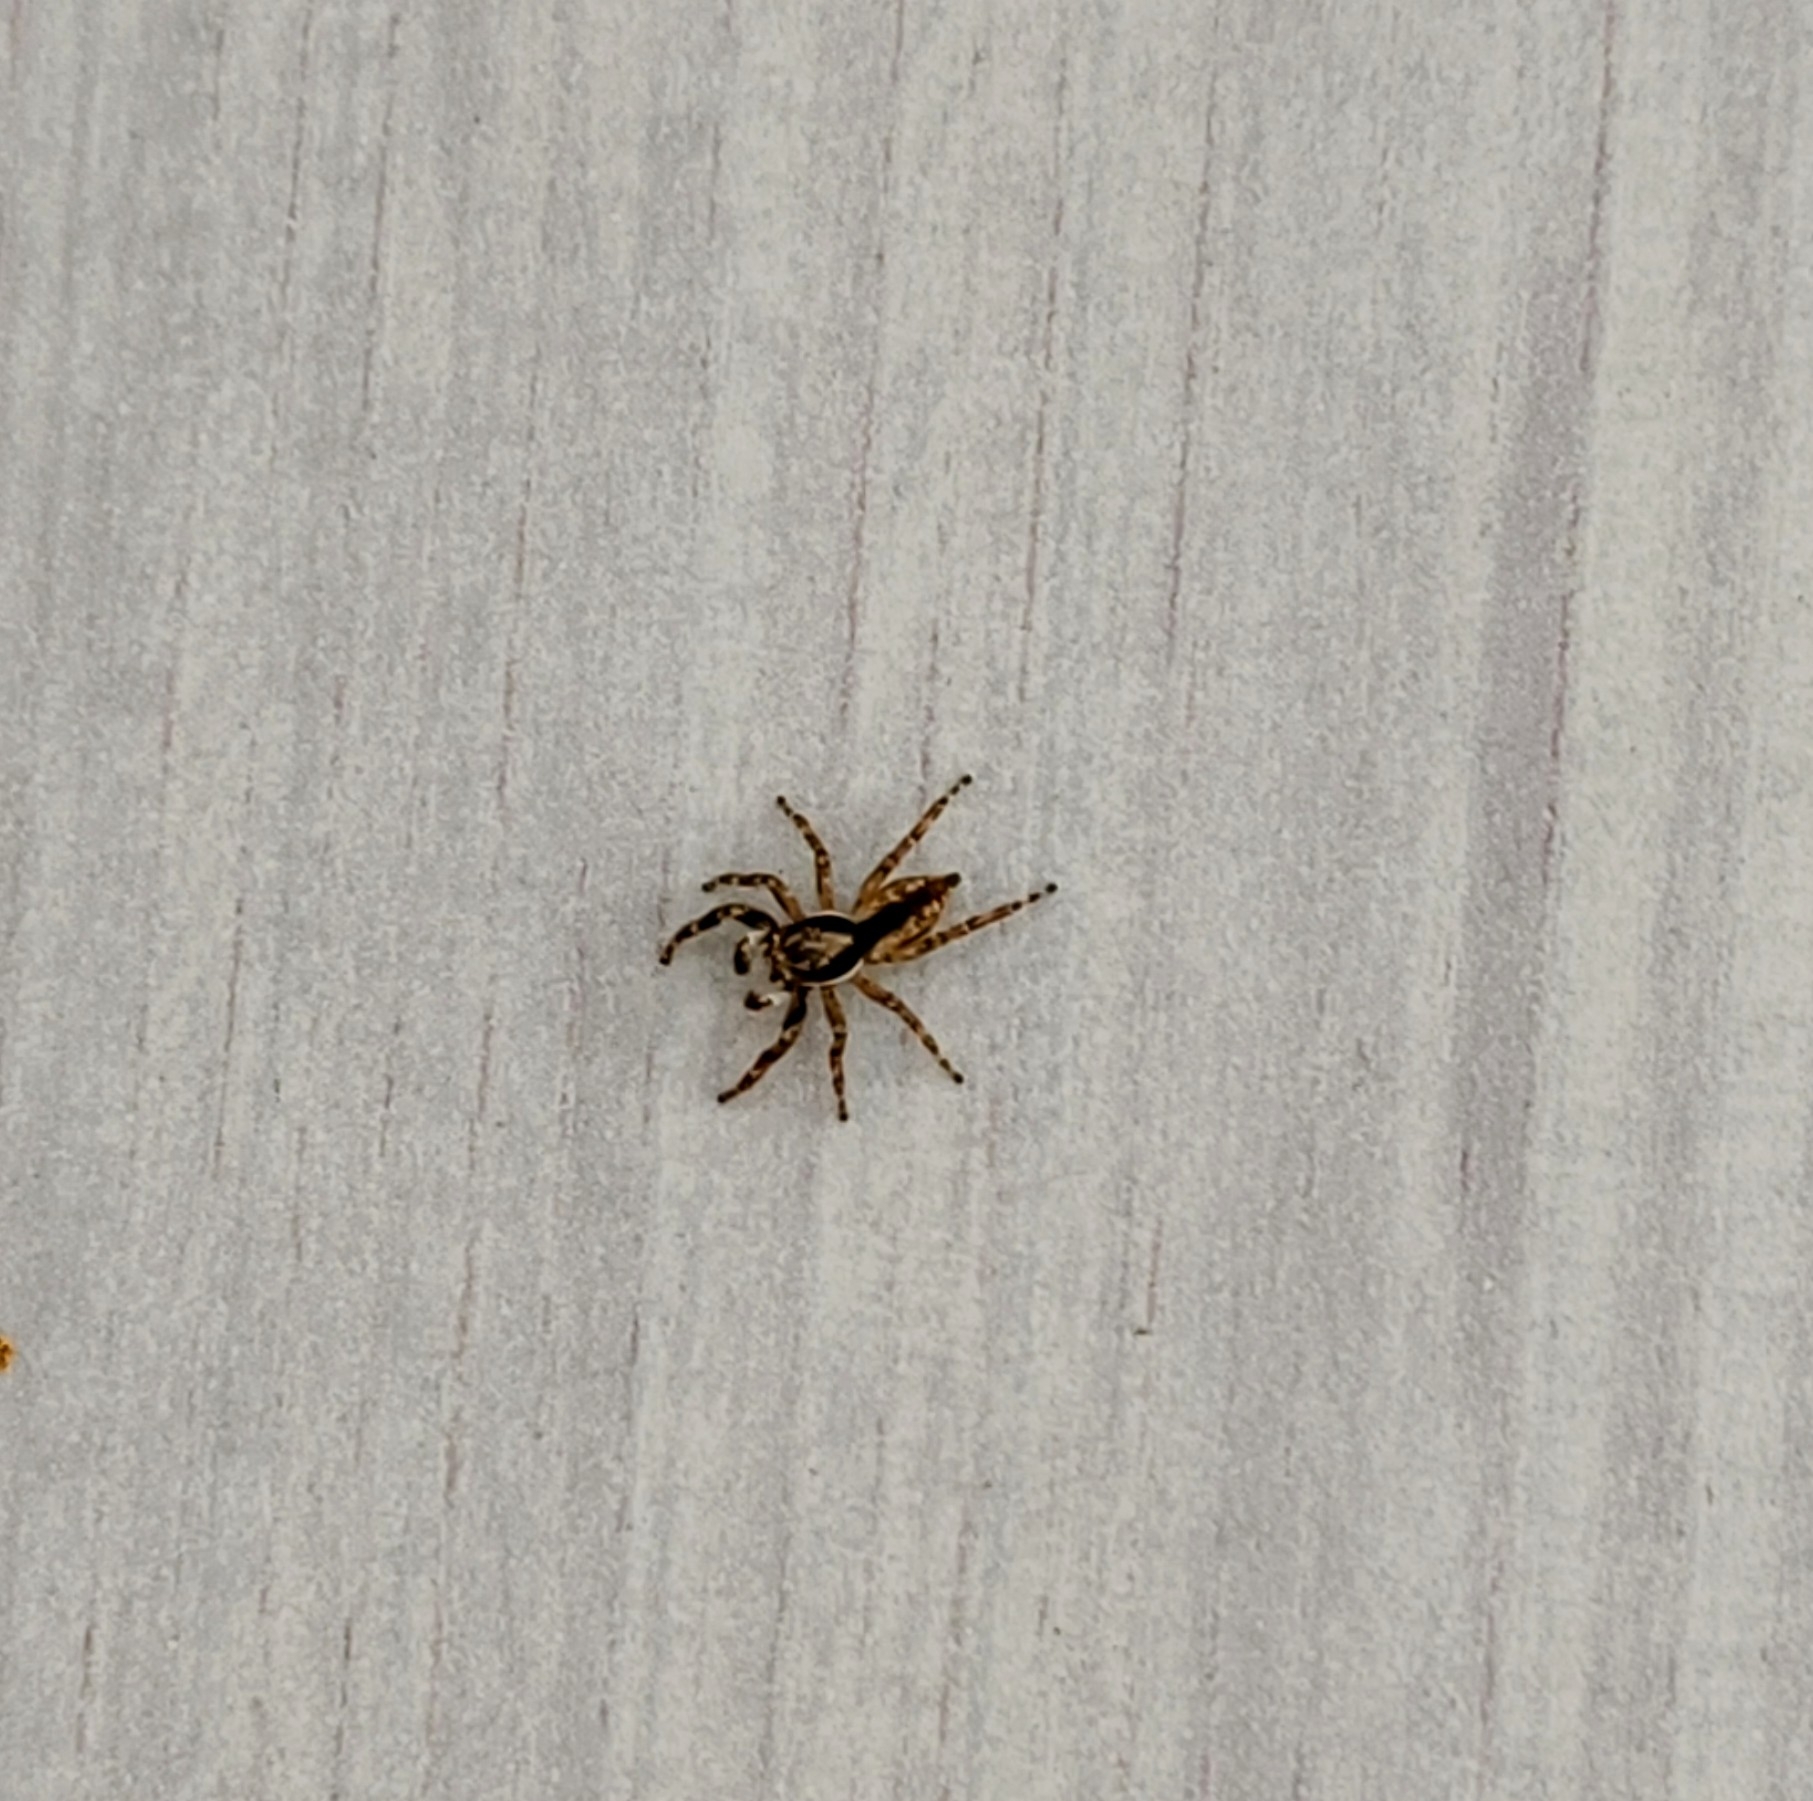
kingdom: Animalia
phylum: Arthropoda
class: Arachnida
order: Araneae
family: Salticidae
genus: Menemerus
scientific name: Menemerus bivittatus
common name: Gray wall jumper
